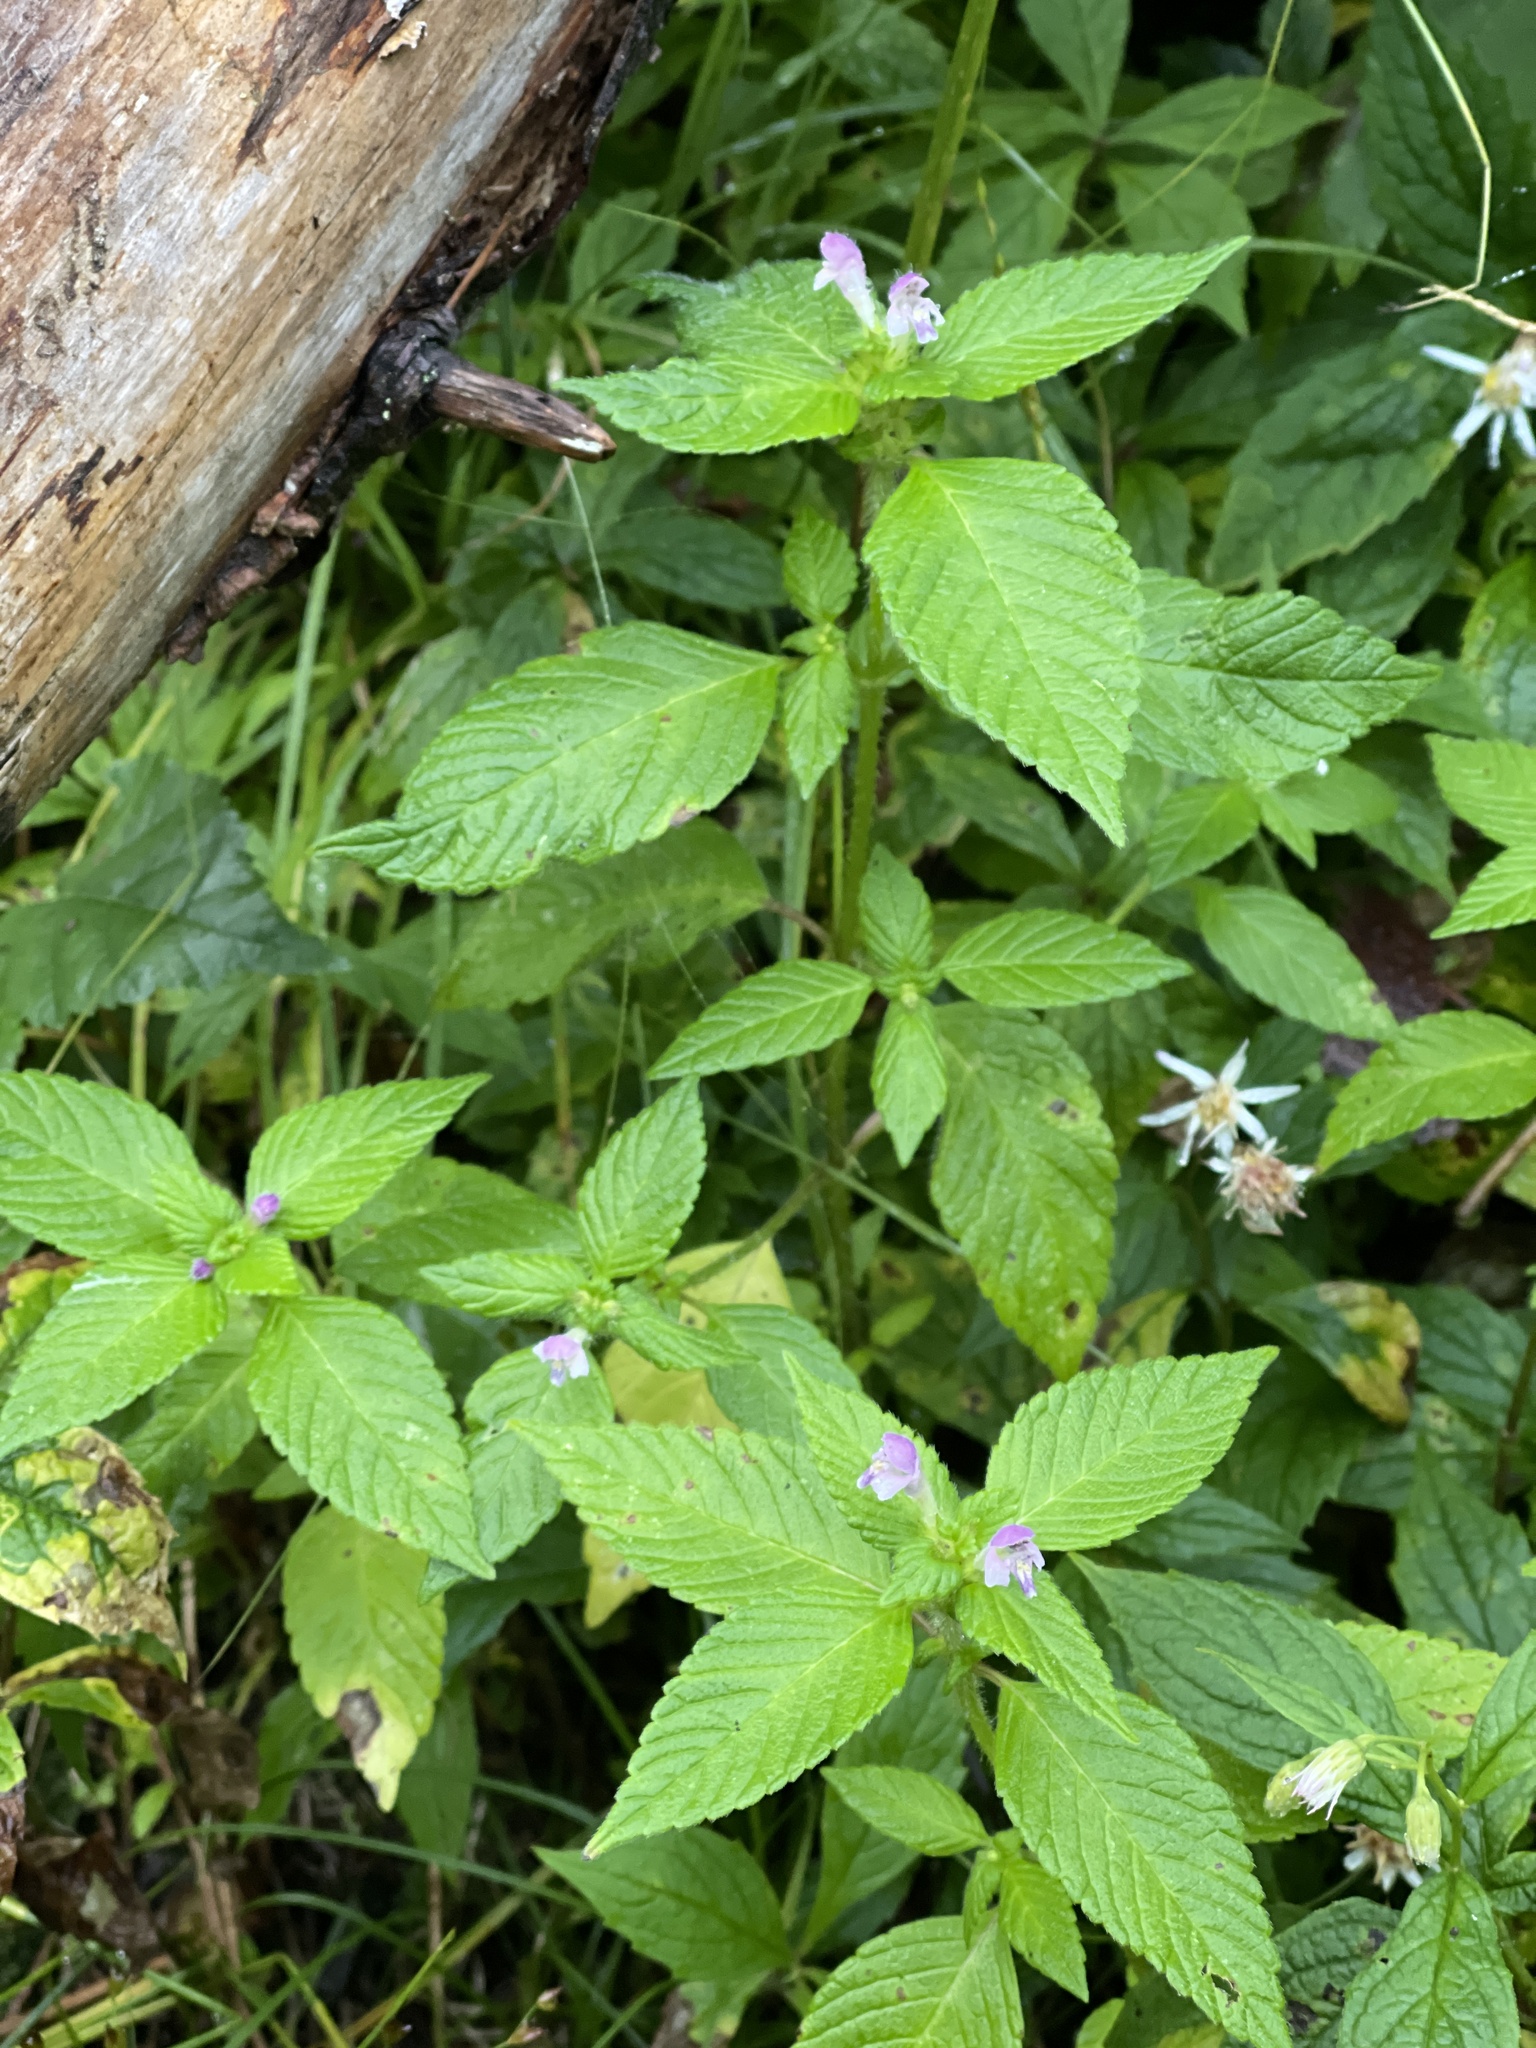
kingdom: Plantae
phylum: Tracheophyta
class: Magnoliopsida
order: Lamiales
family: Lamiaceae
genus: Galeopsis
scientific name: Galeopsis bifida
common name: Bifid hemp-nettle
